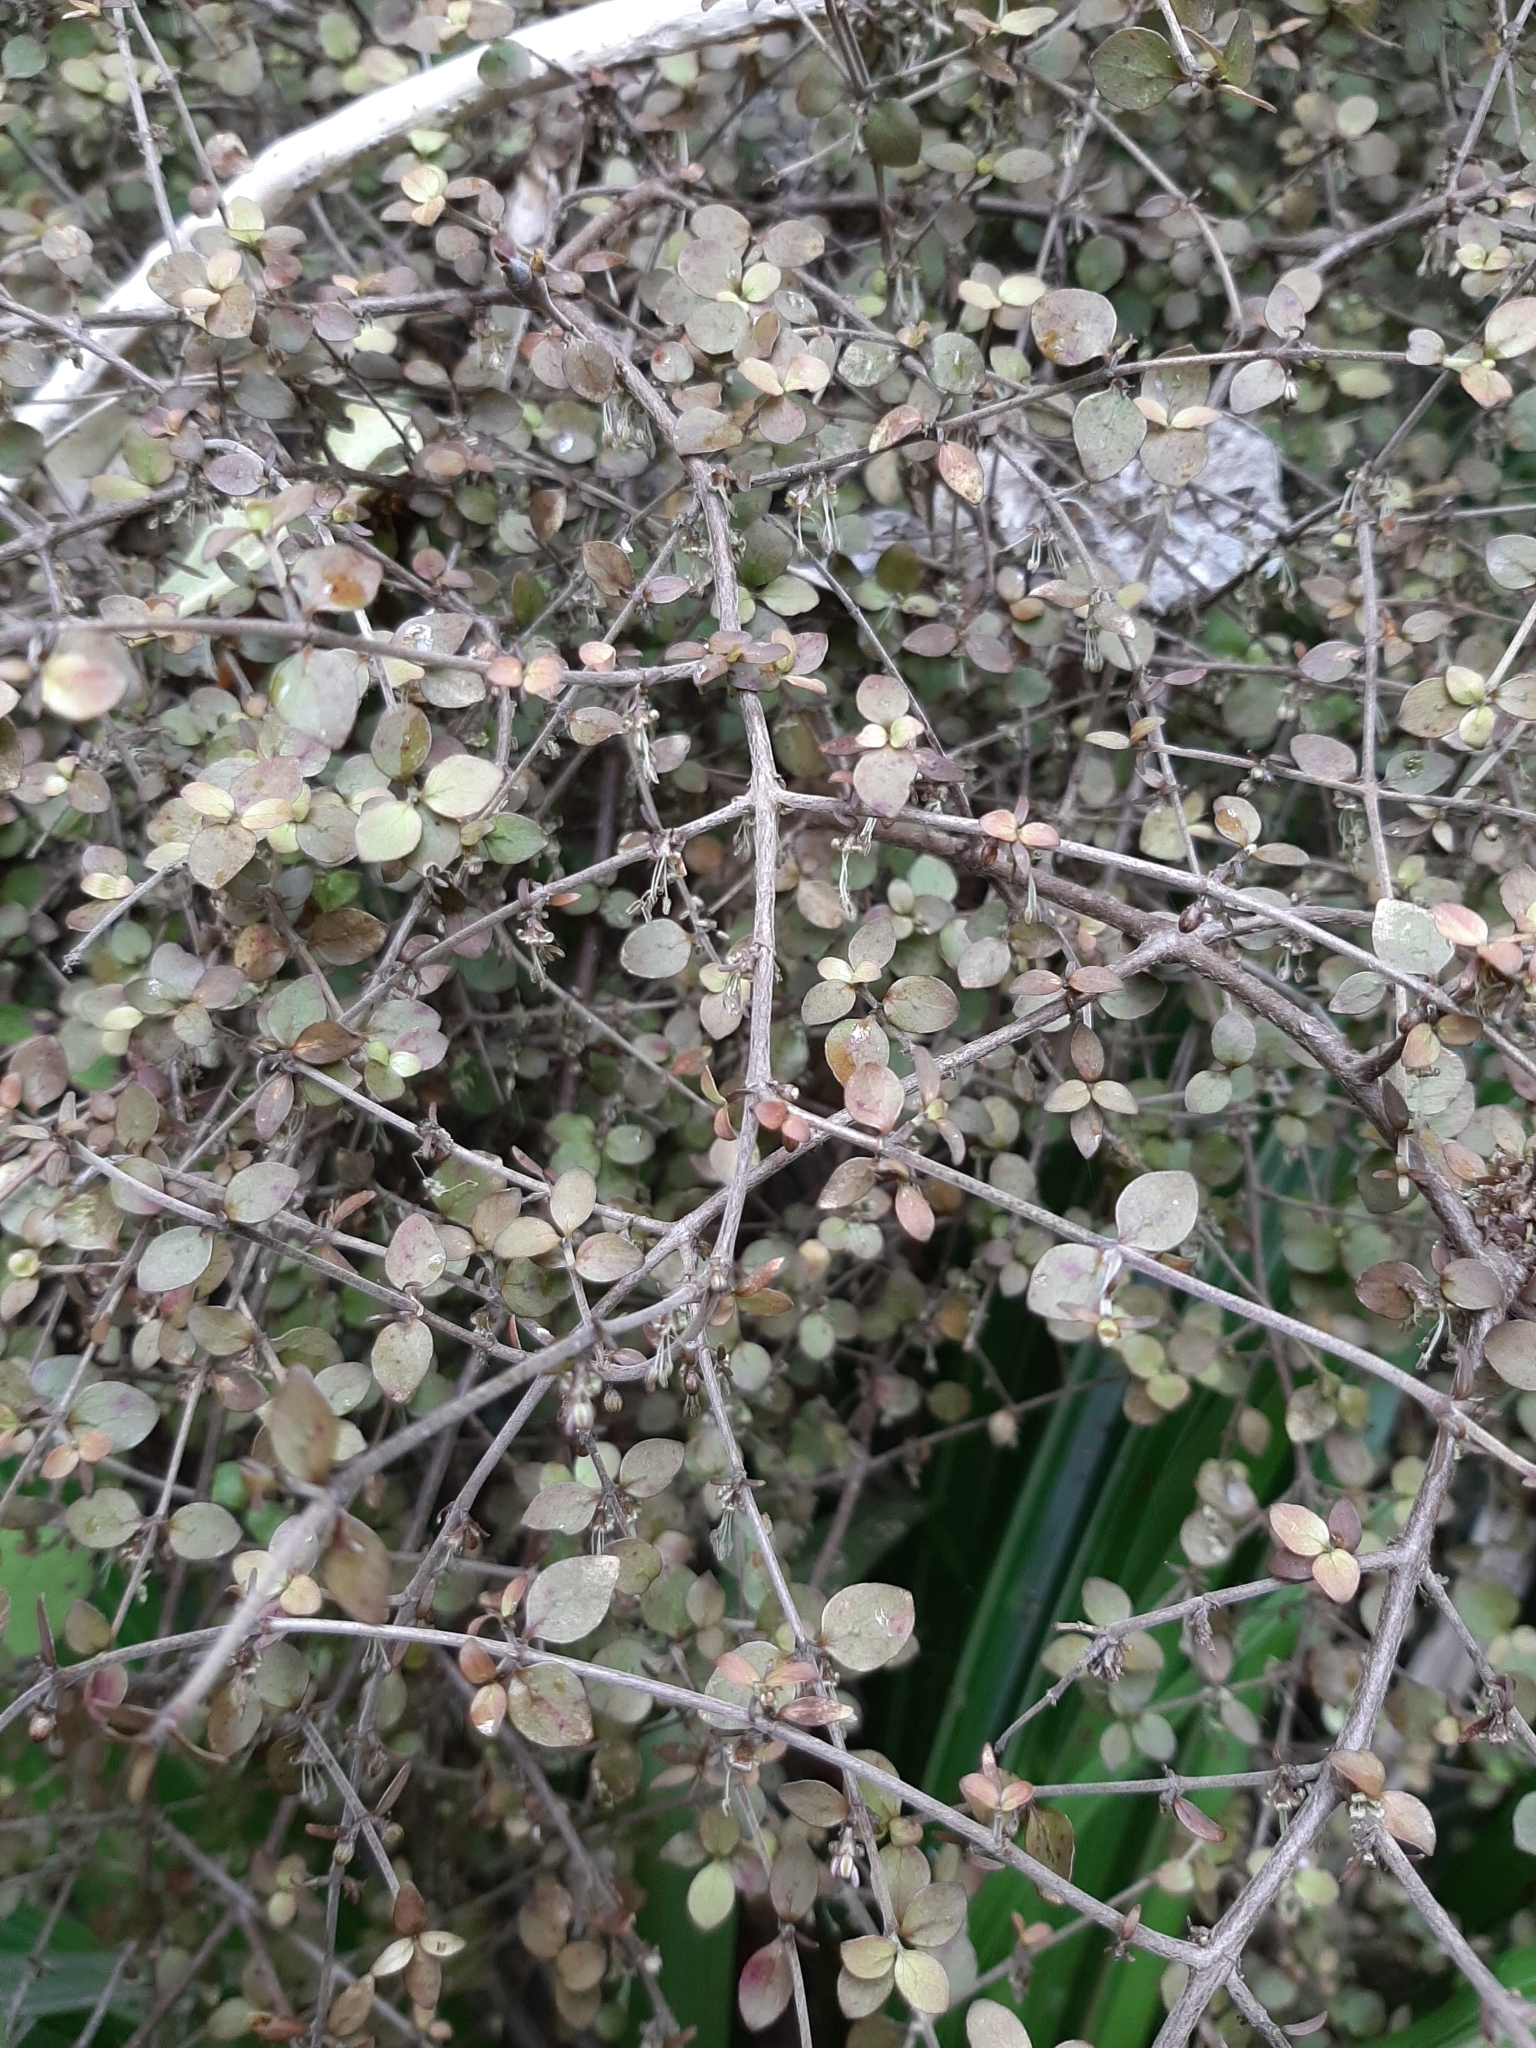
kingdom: Plantae
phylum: Tracheophyta
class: Magnoliopsida
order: Gentianales
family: Rubiaceae
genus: Coprosma
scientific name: Coprosma rhamnoides
